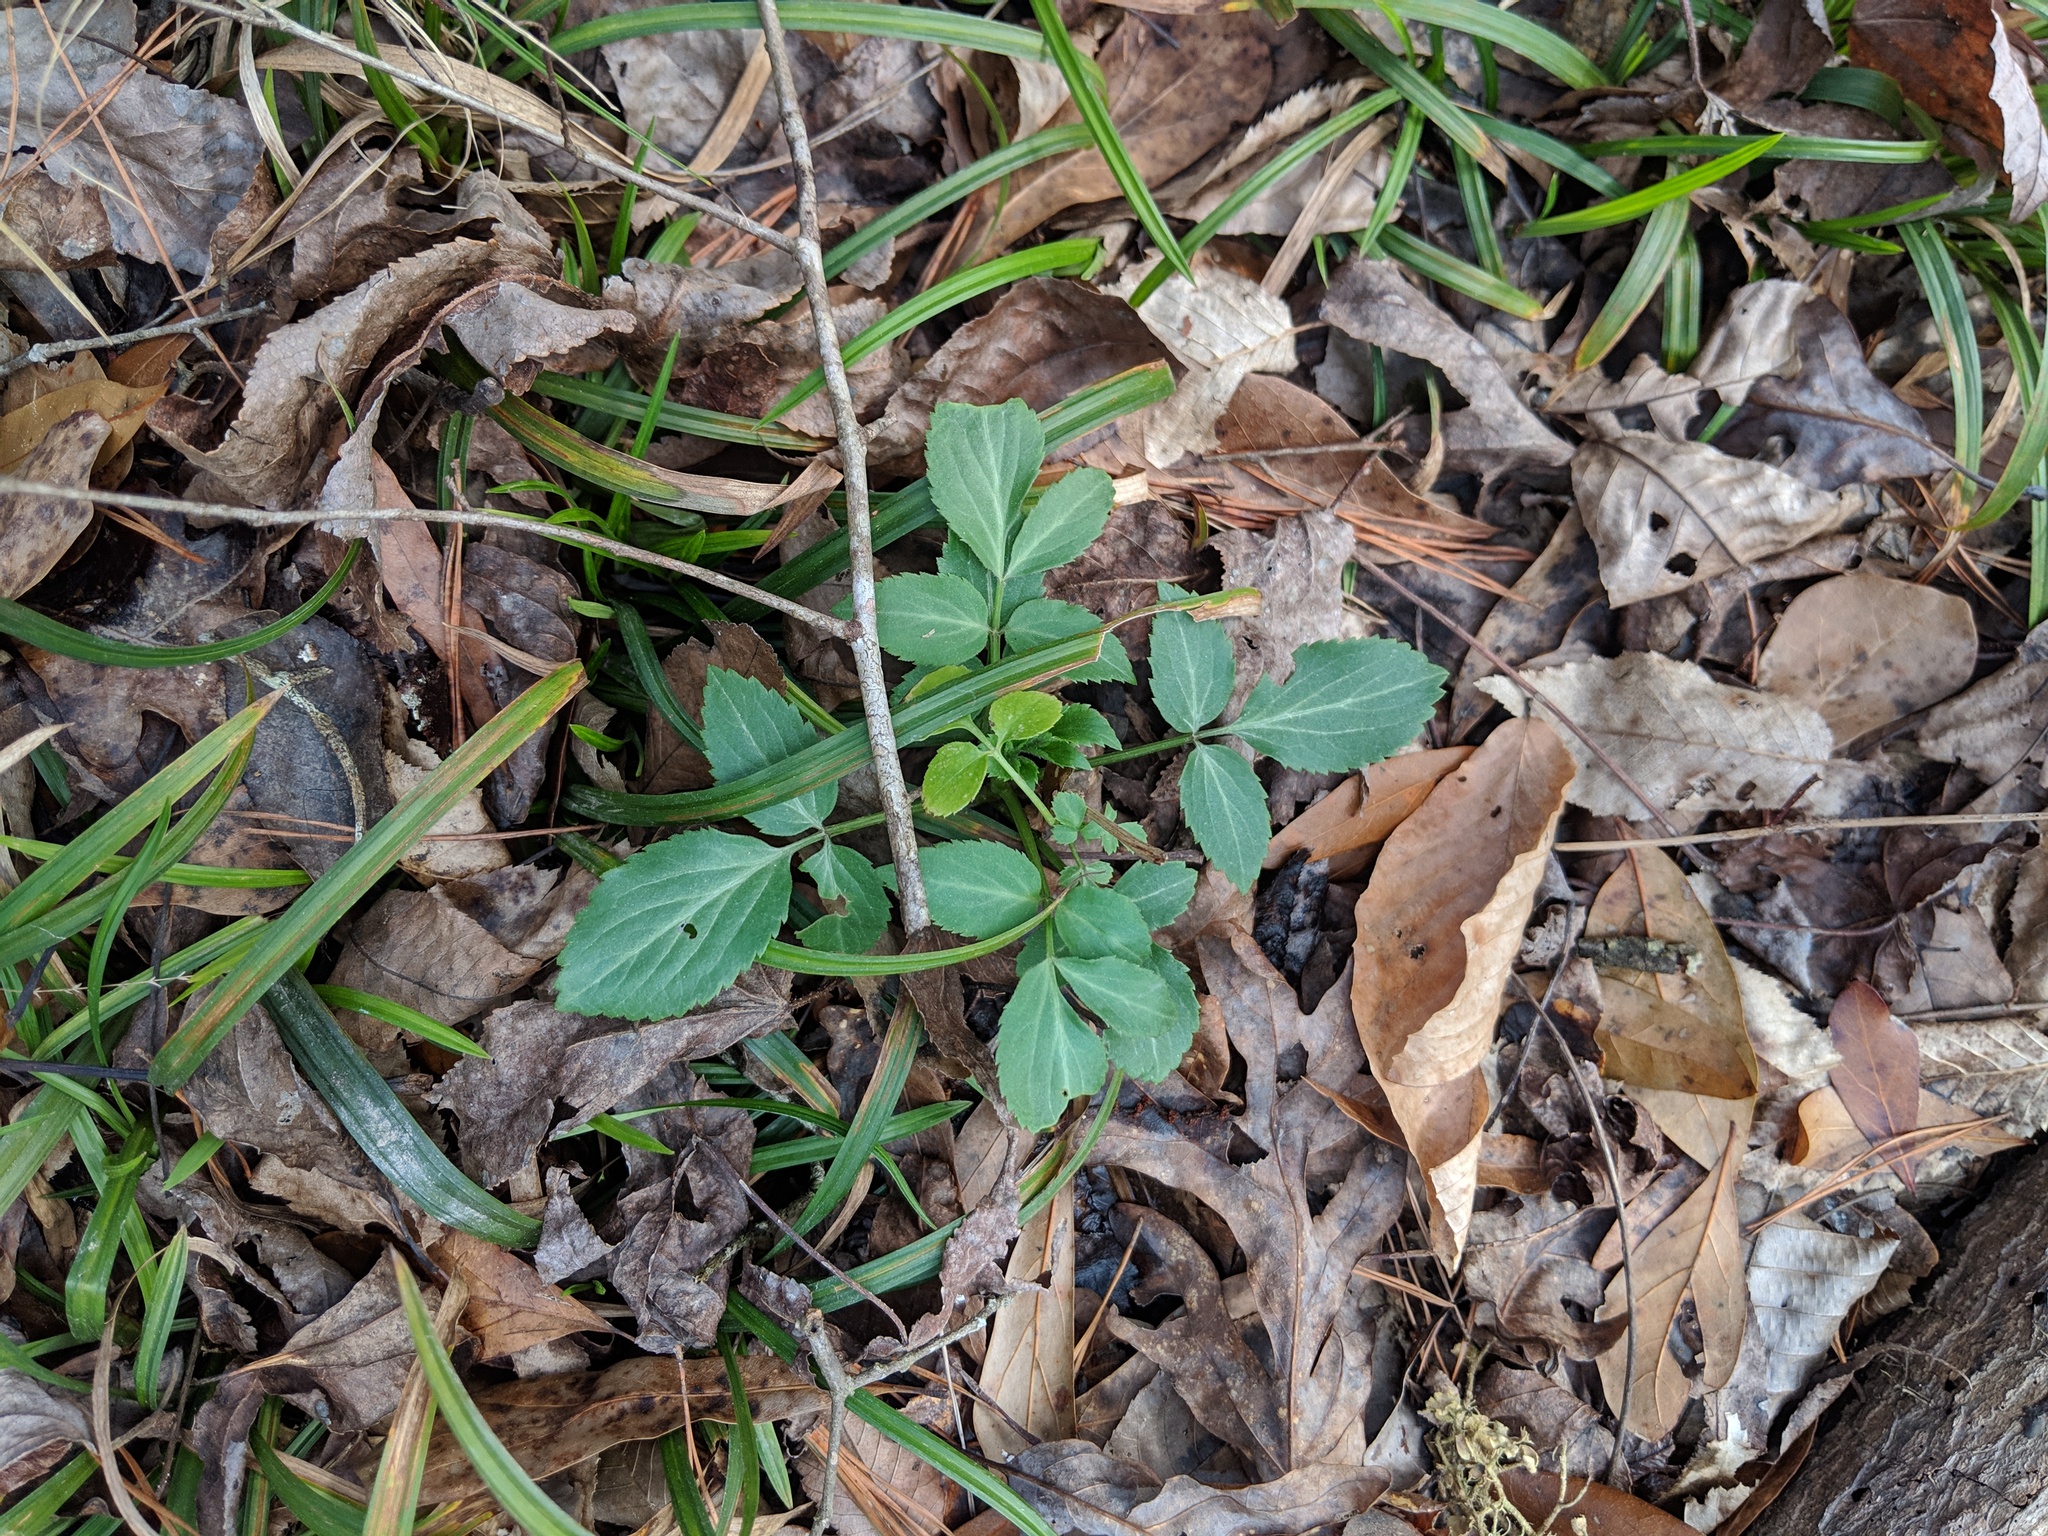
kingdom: Plantae
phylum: Tracheophyta
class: Magnoliopsida
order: Dipsacales
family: Viburnaceae
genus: Sambucus
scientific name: Sambucus canadensis
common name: American elder
